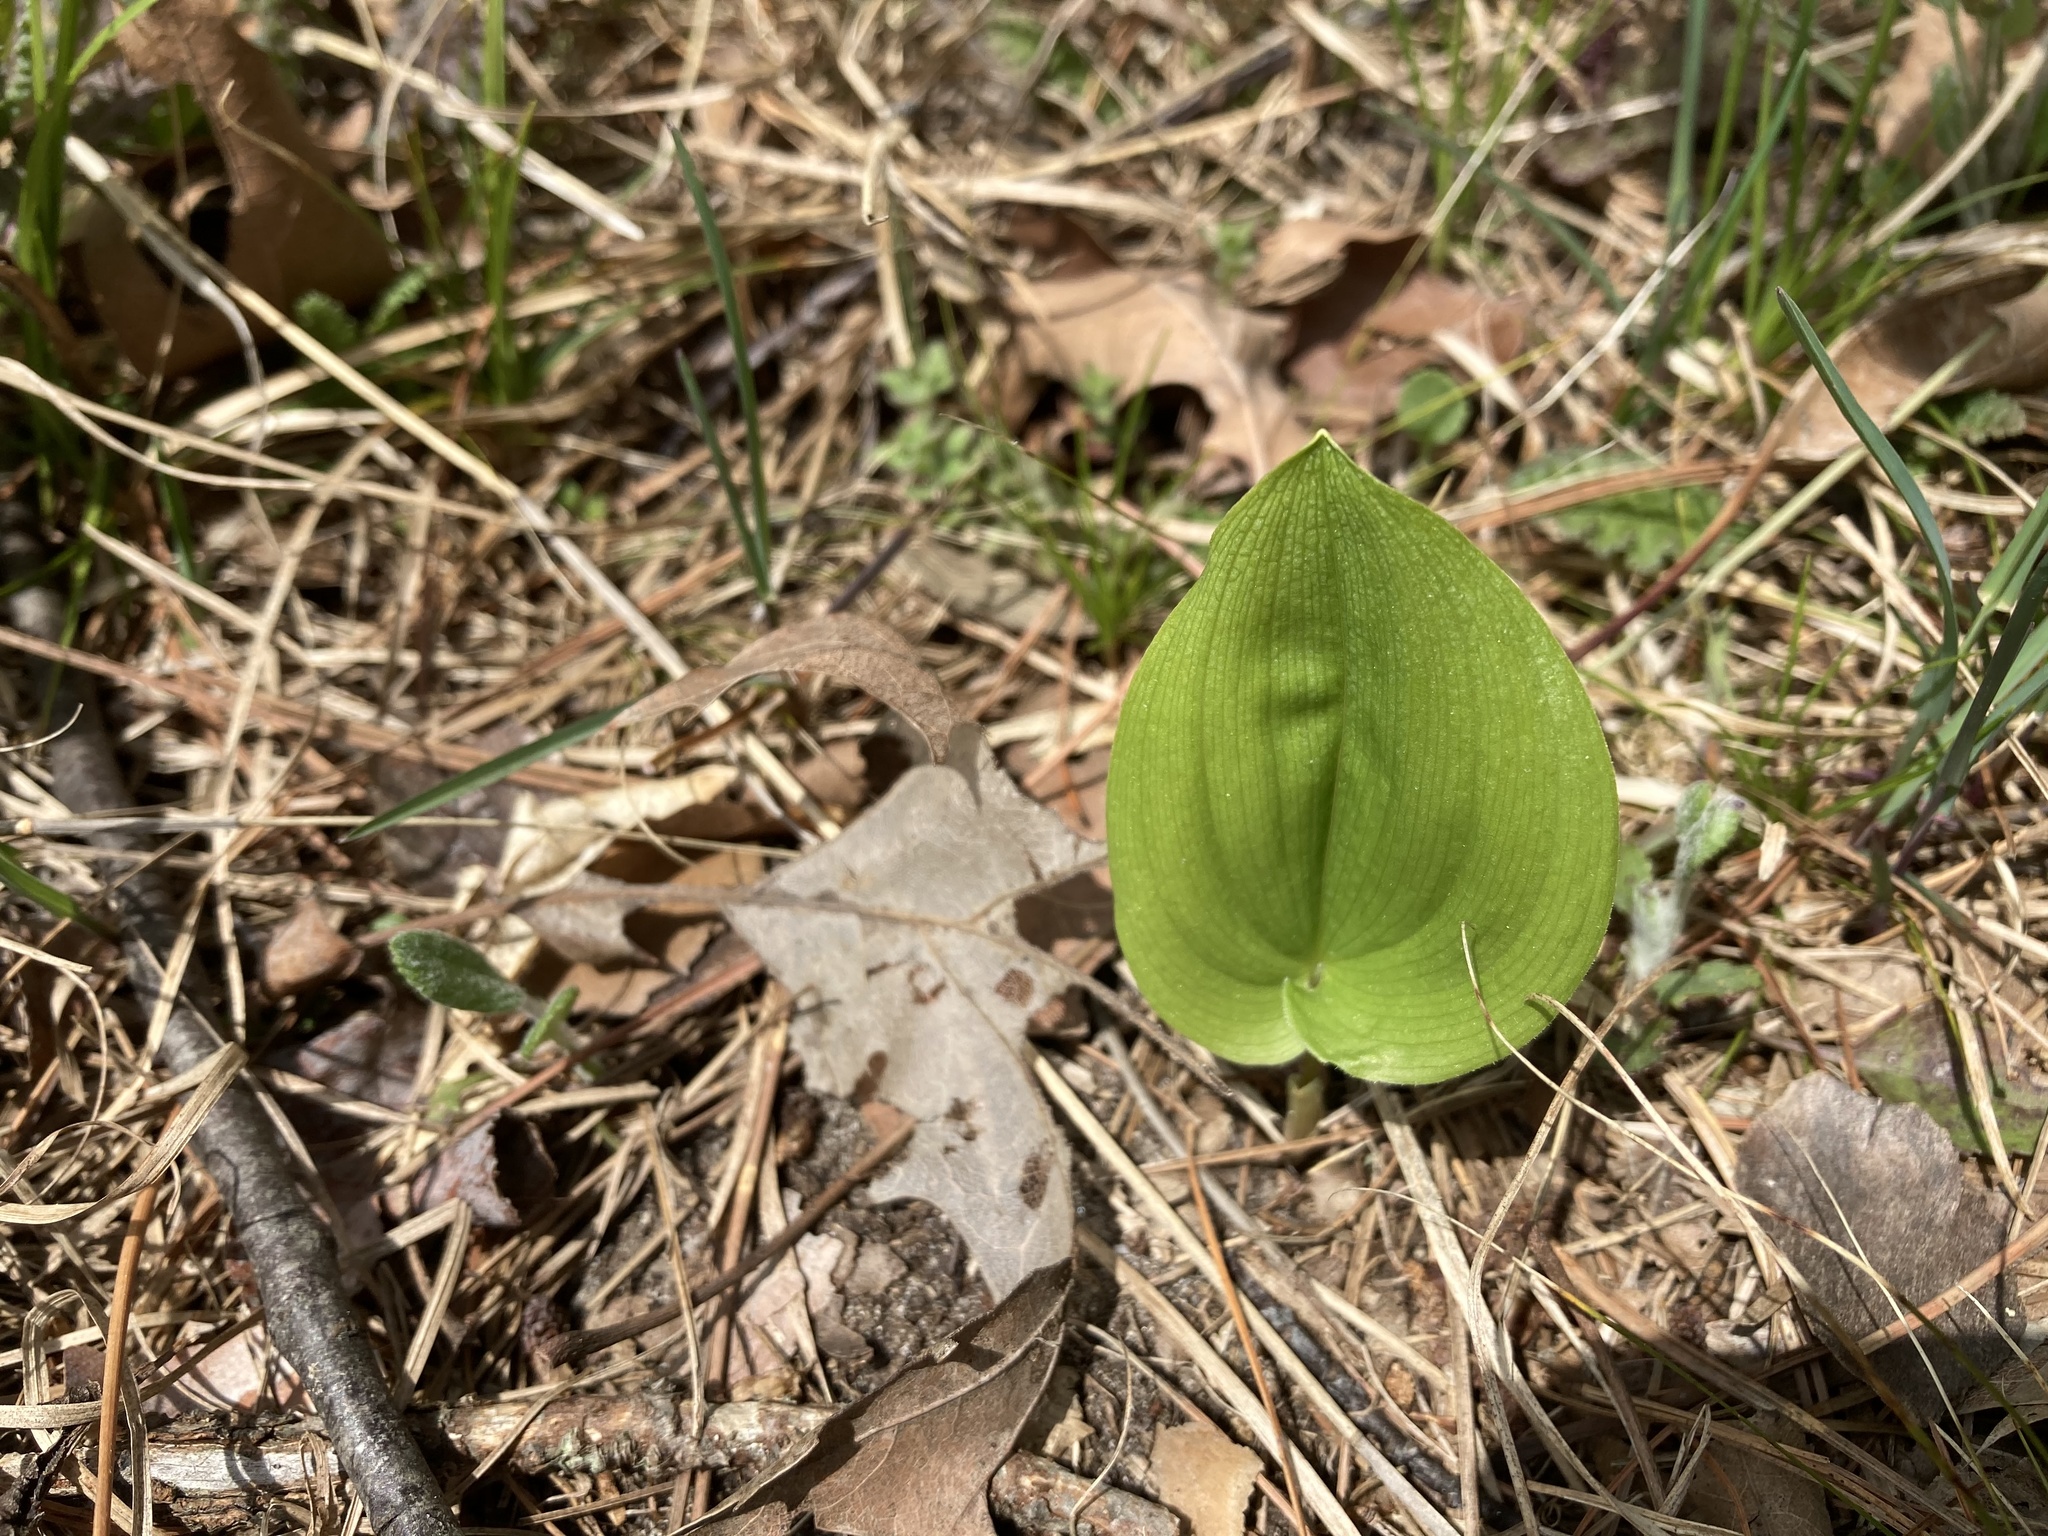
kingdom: Plantae
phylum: Tracheophyta
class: Liliopsida
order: Asparagales
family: Asparagaceae
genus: Maianthemum
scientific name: Maianthemum canadense
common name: False lily-of-the-valley
